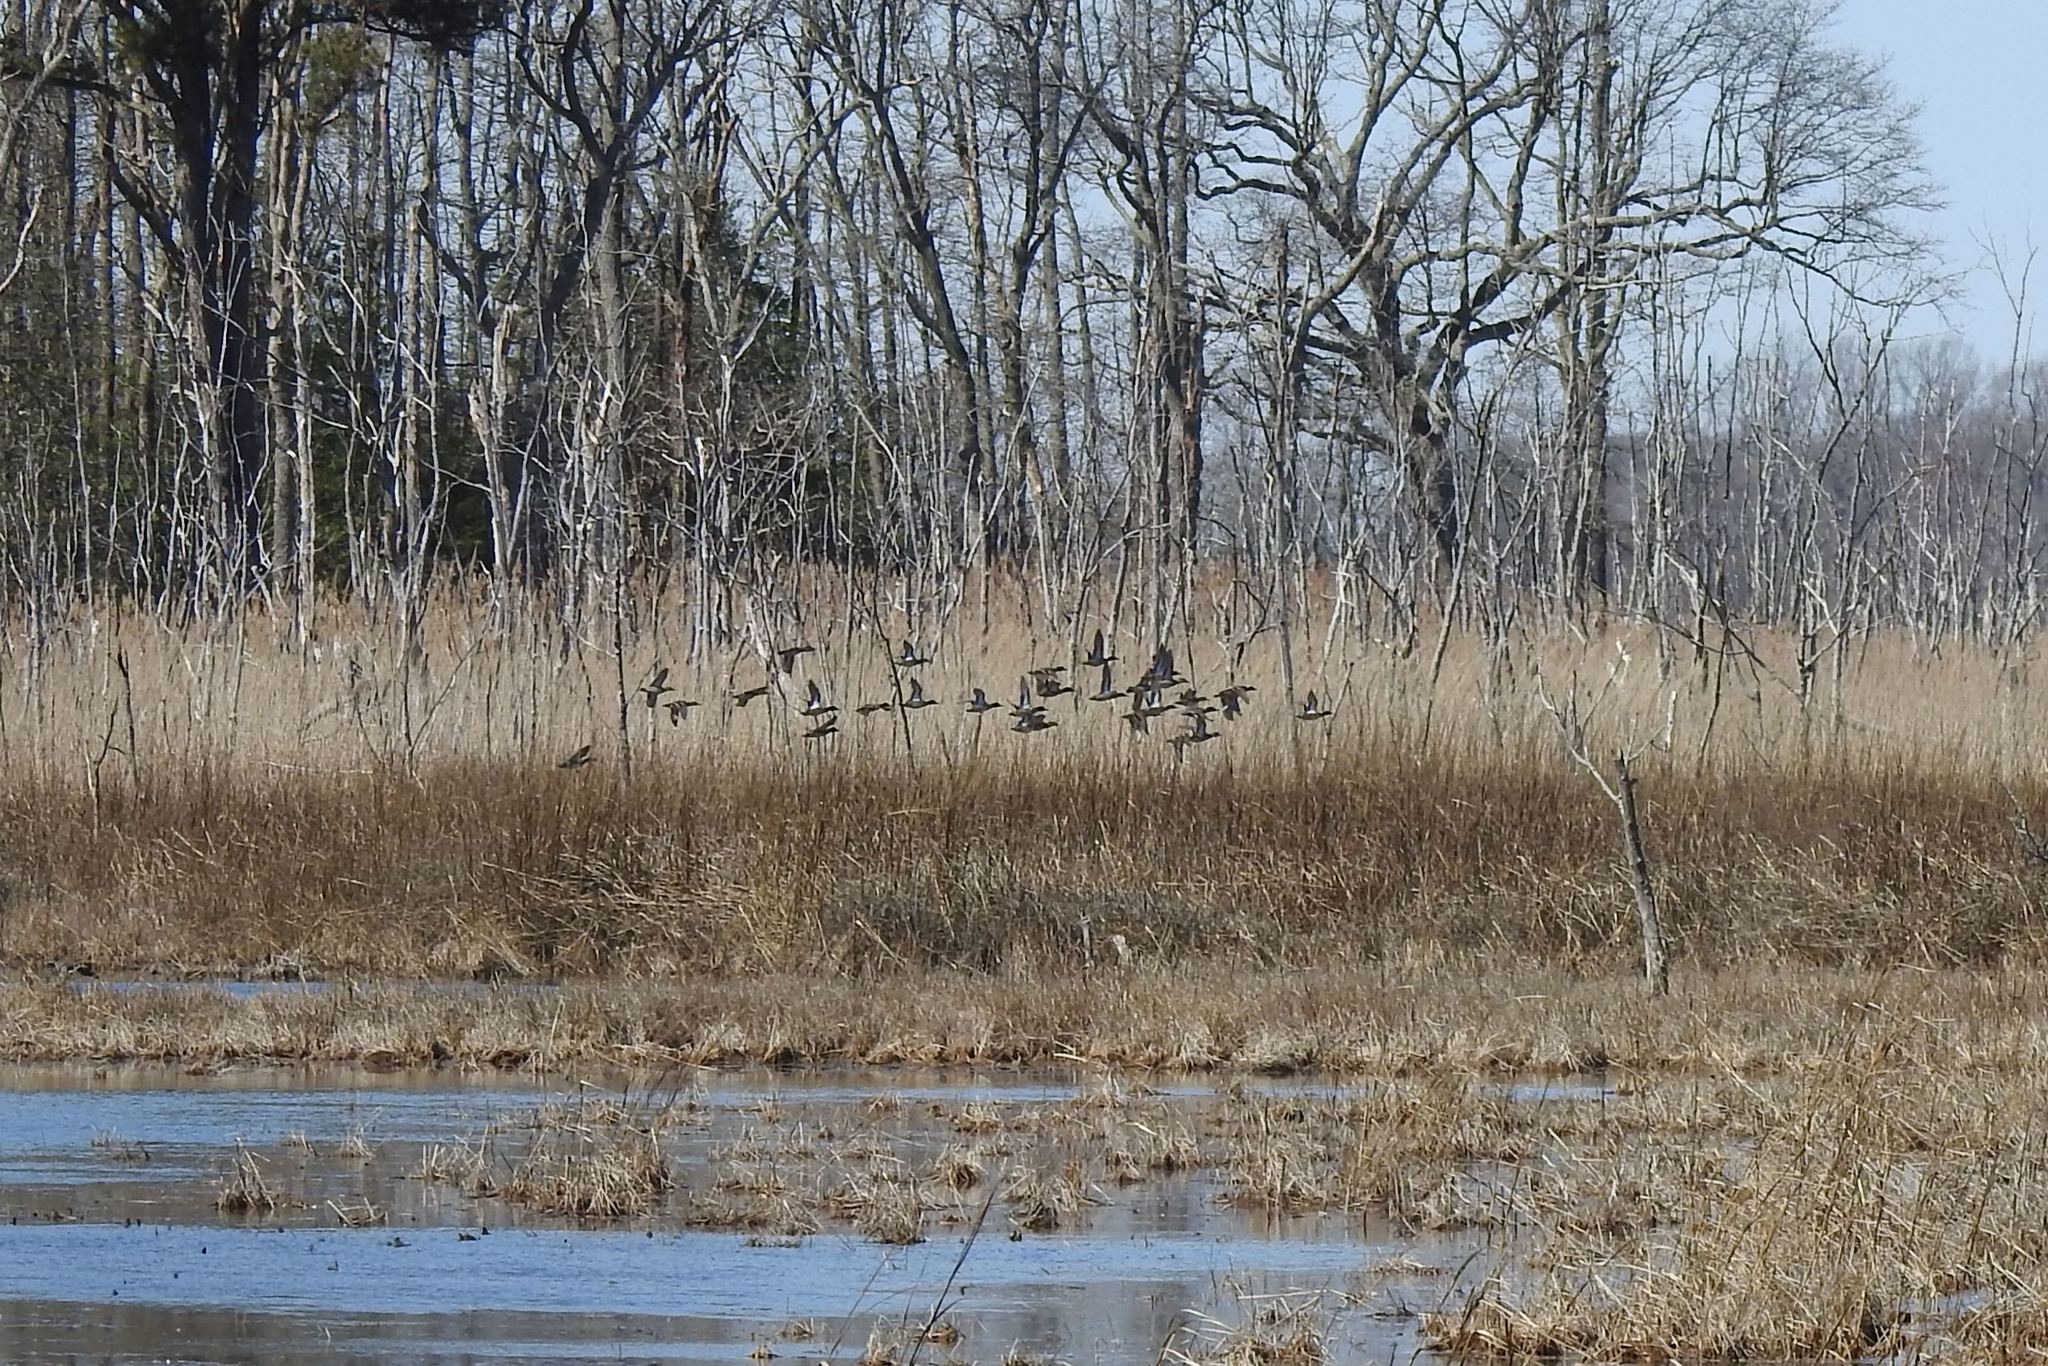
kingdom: Animalia
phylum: Chordata
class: Aves
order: Anseriformes
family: Anatidae
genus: Anas
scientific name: Anas crecca
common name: Eurasian teal
